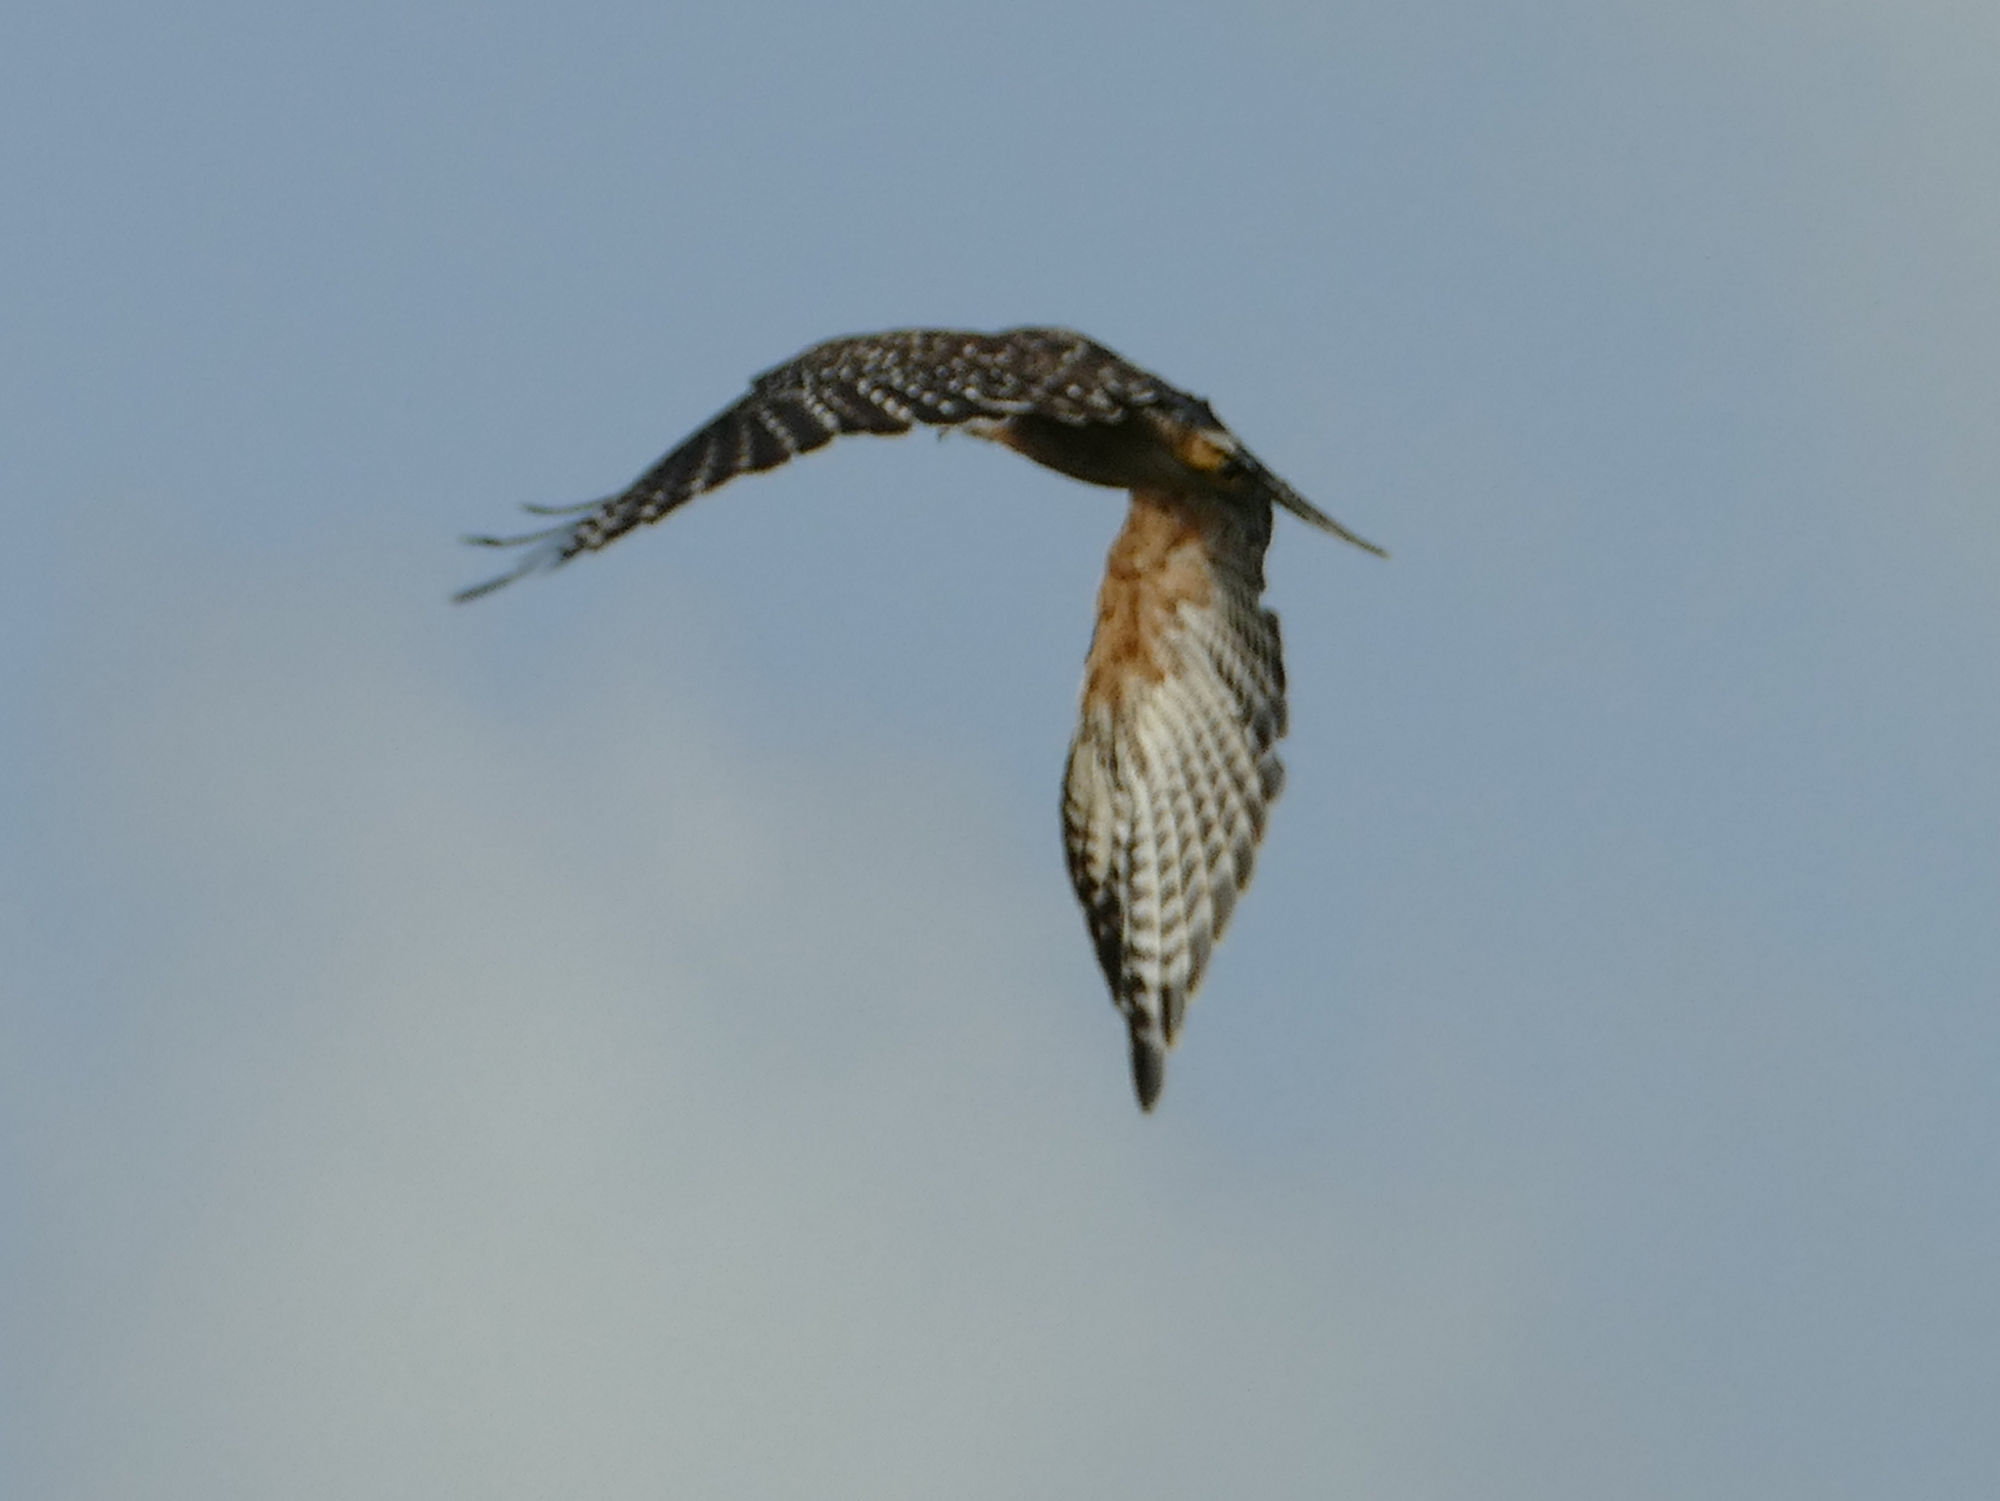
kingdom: Animalia
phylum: Chordata
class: Aves
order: Accipitriformes
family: Accipitridae
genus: Buteo
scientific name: Buteo lineatus
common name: Red-shouldered hawk
